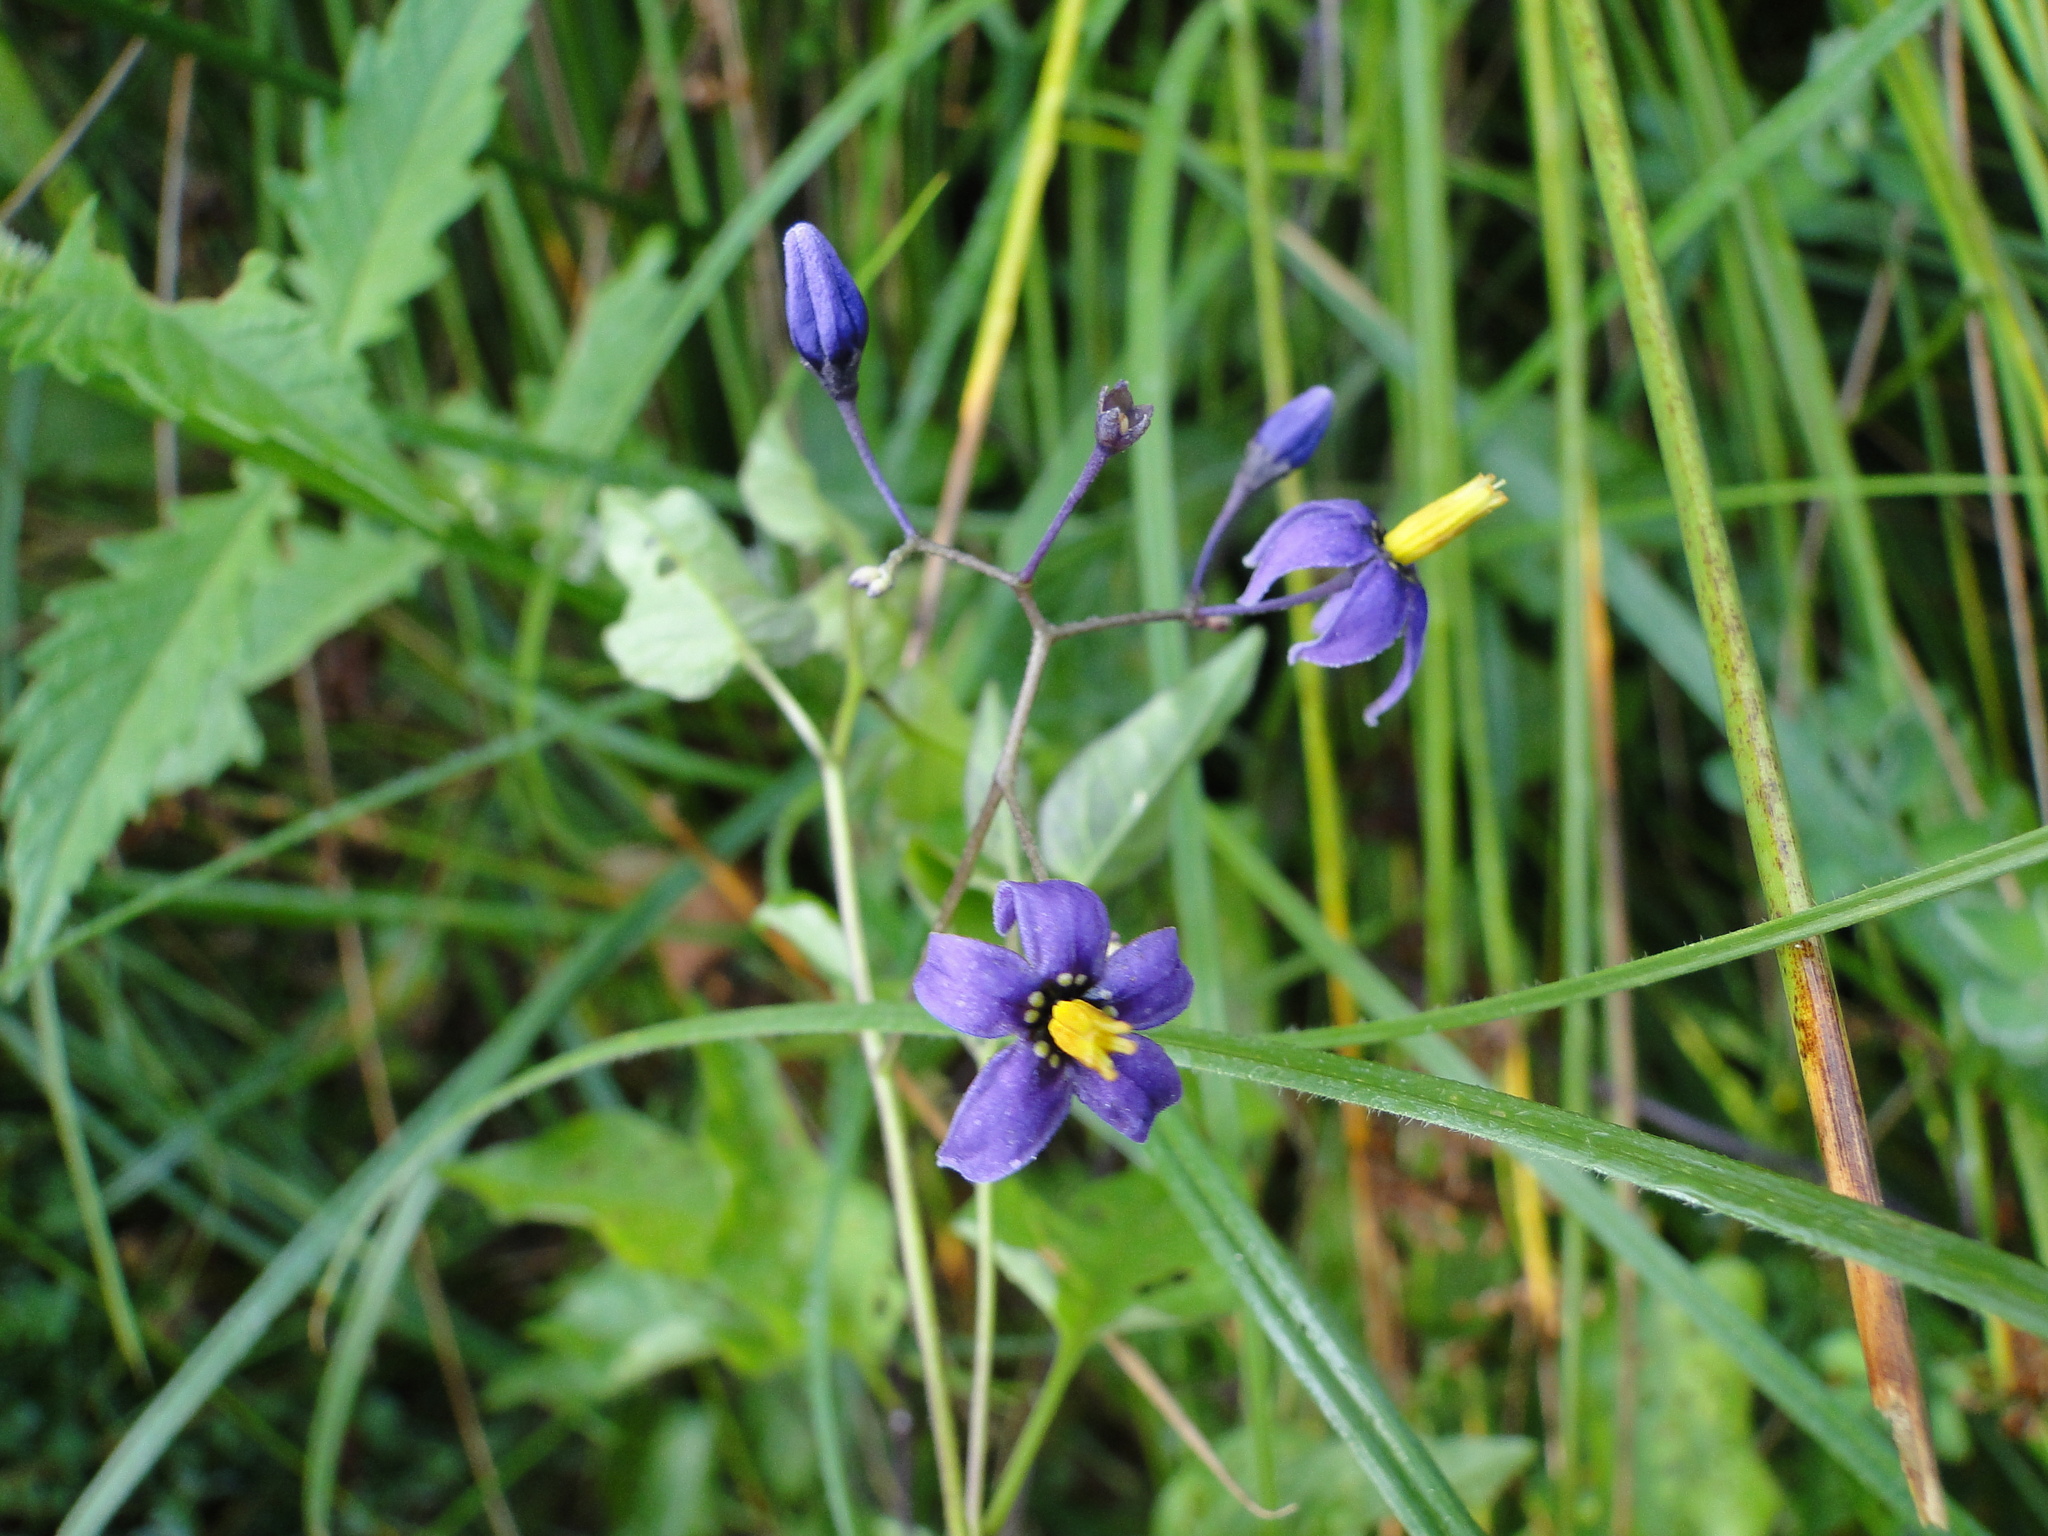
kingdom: Plantae
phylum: Tracheophyta
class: Magnoliopsida
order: Solanales
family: Solanaceae
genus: Solanum
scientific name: Solanum dulcamara
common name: Climbing nightshade
